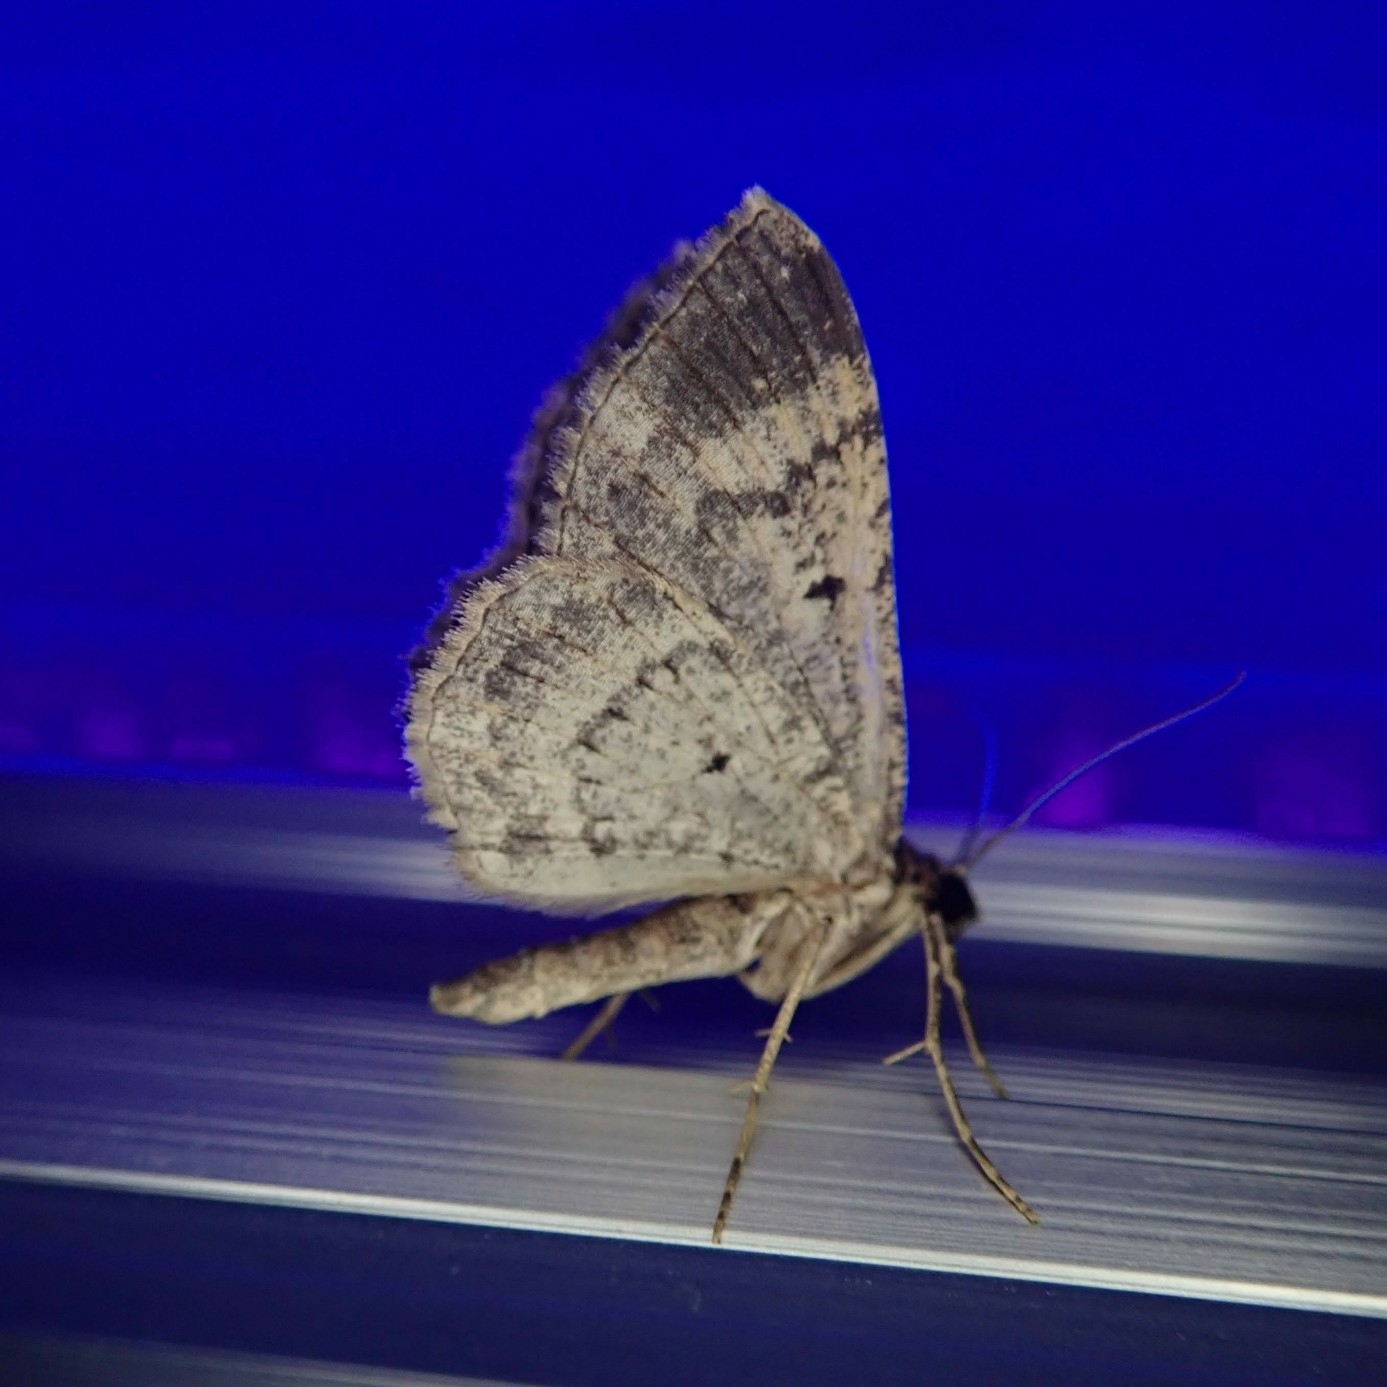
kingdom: Animalia
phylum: Arthropoda
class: Insecta
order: Lepidoptera
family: Geometridae
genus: Disclisioprocta
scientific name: Disclisioprocta stellata
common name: Somber carpet
